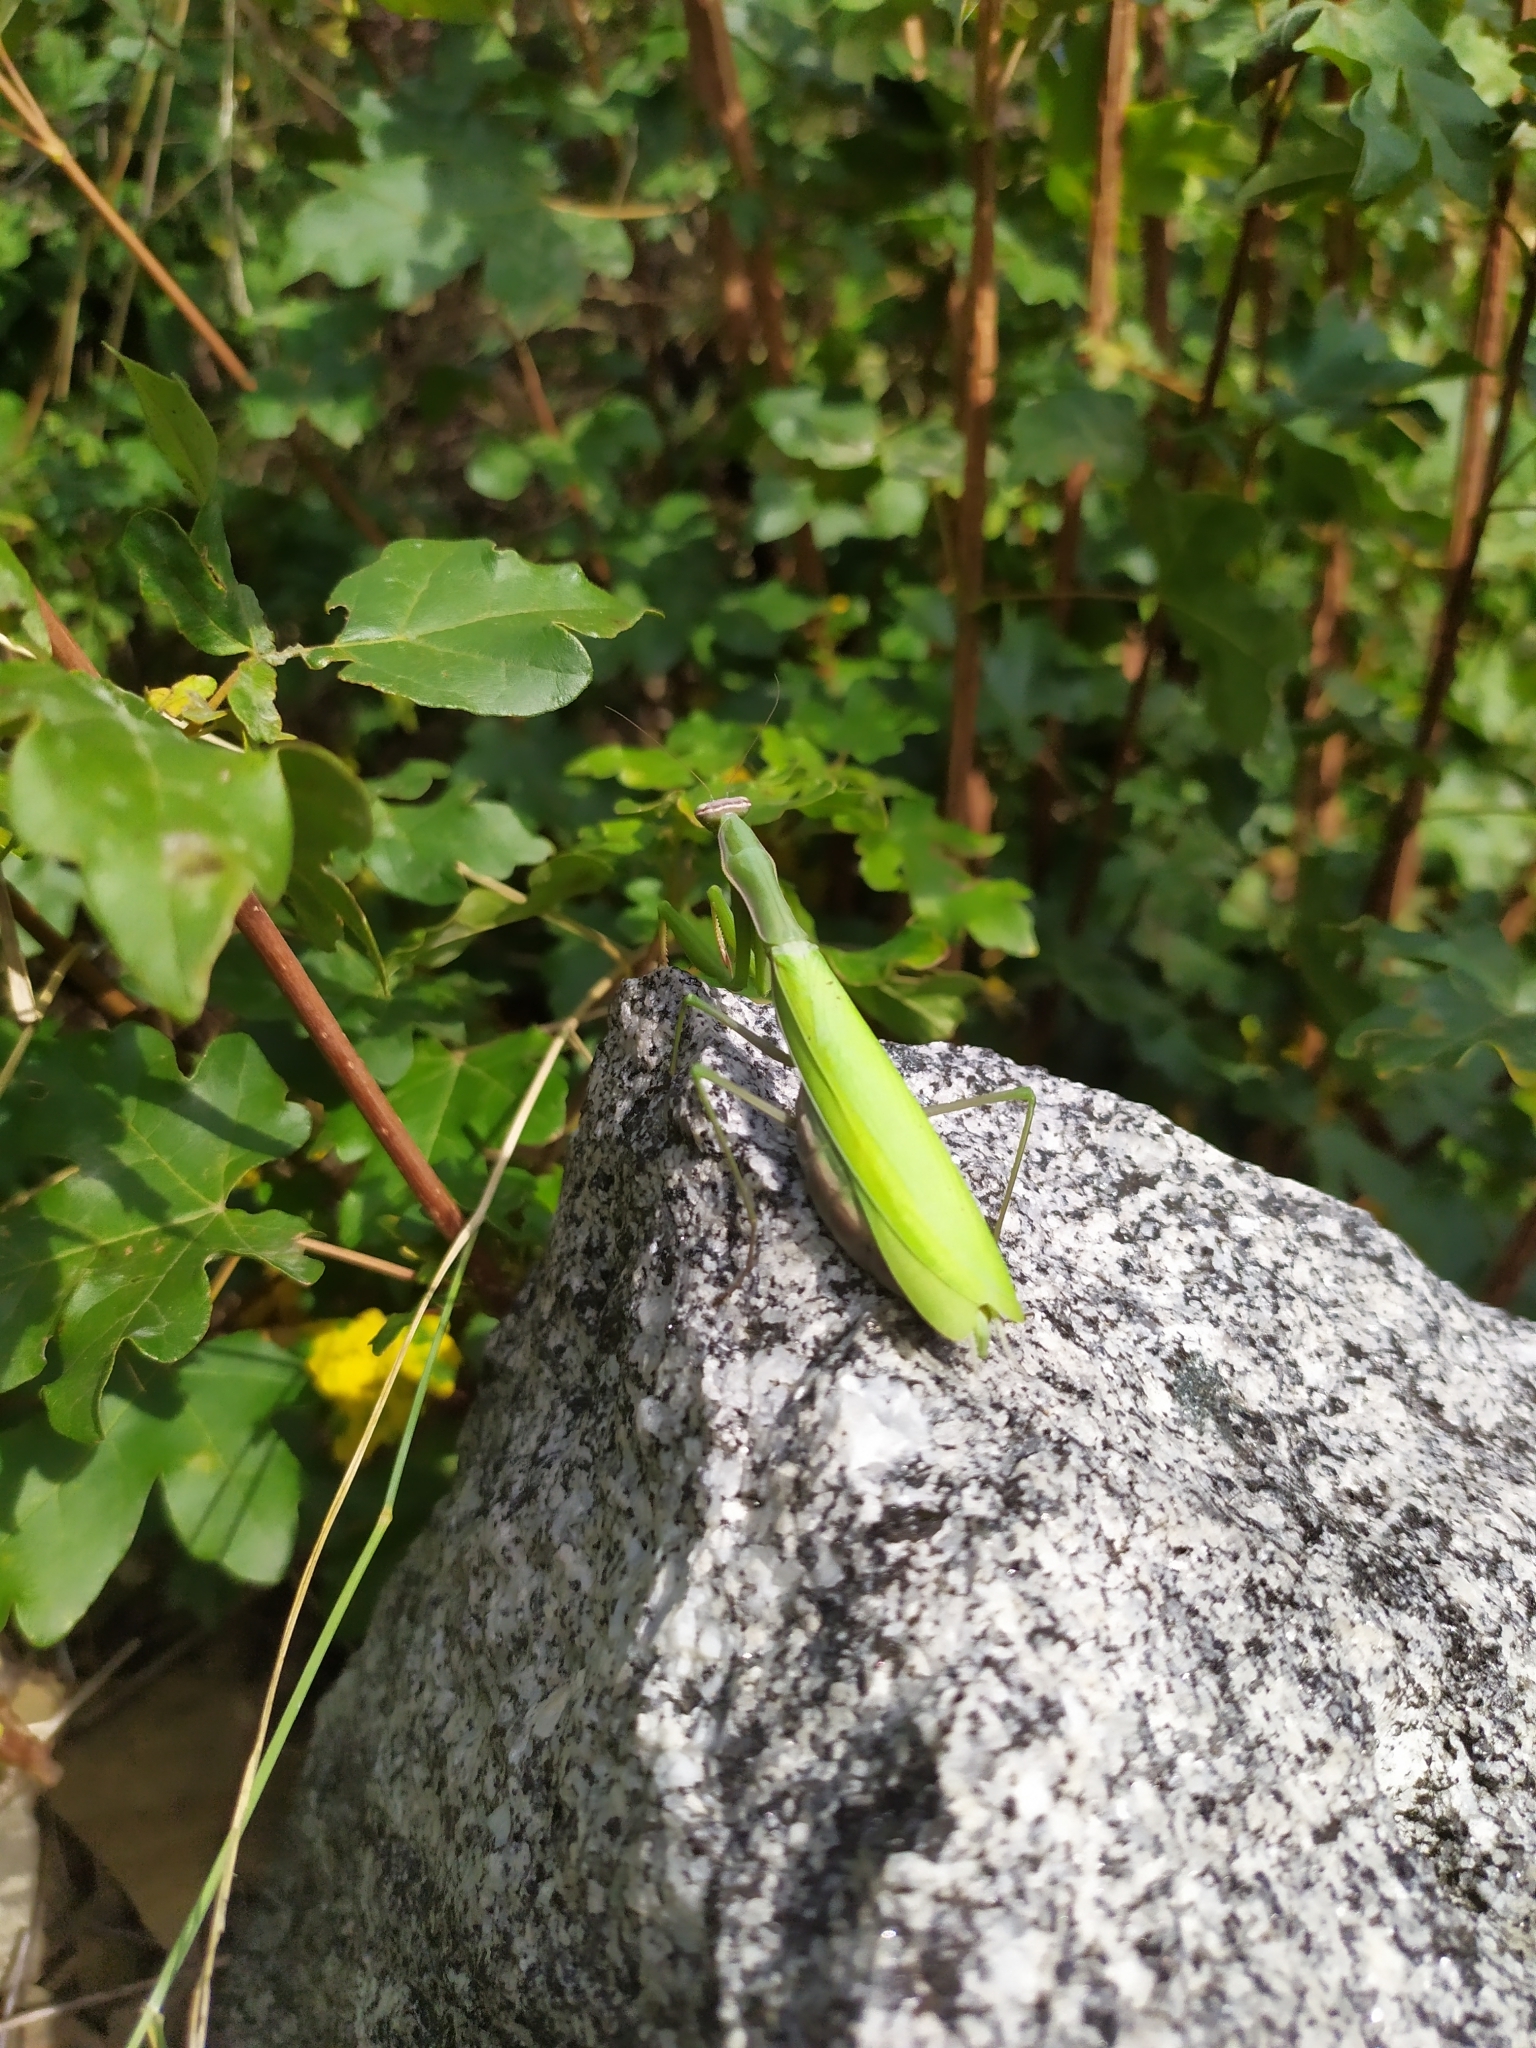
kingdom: Animalia
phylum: Arthropoda
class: Insecta
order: Mantodea
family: Mantidae
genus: Mantis
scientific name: Mantis religiosa
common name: Praying mantis
